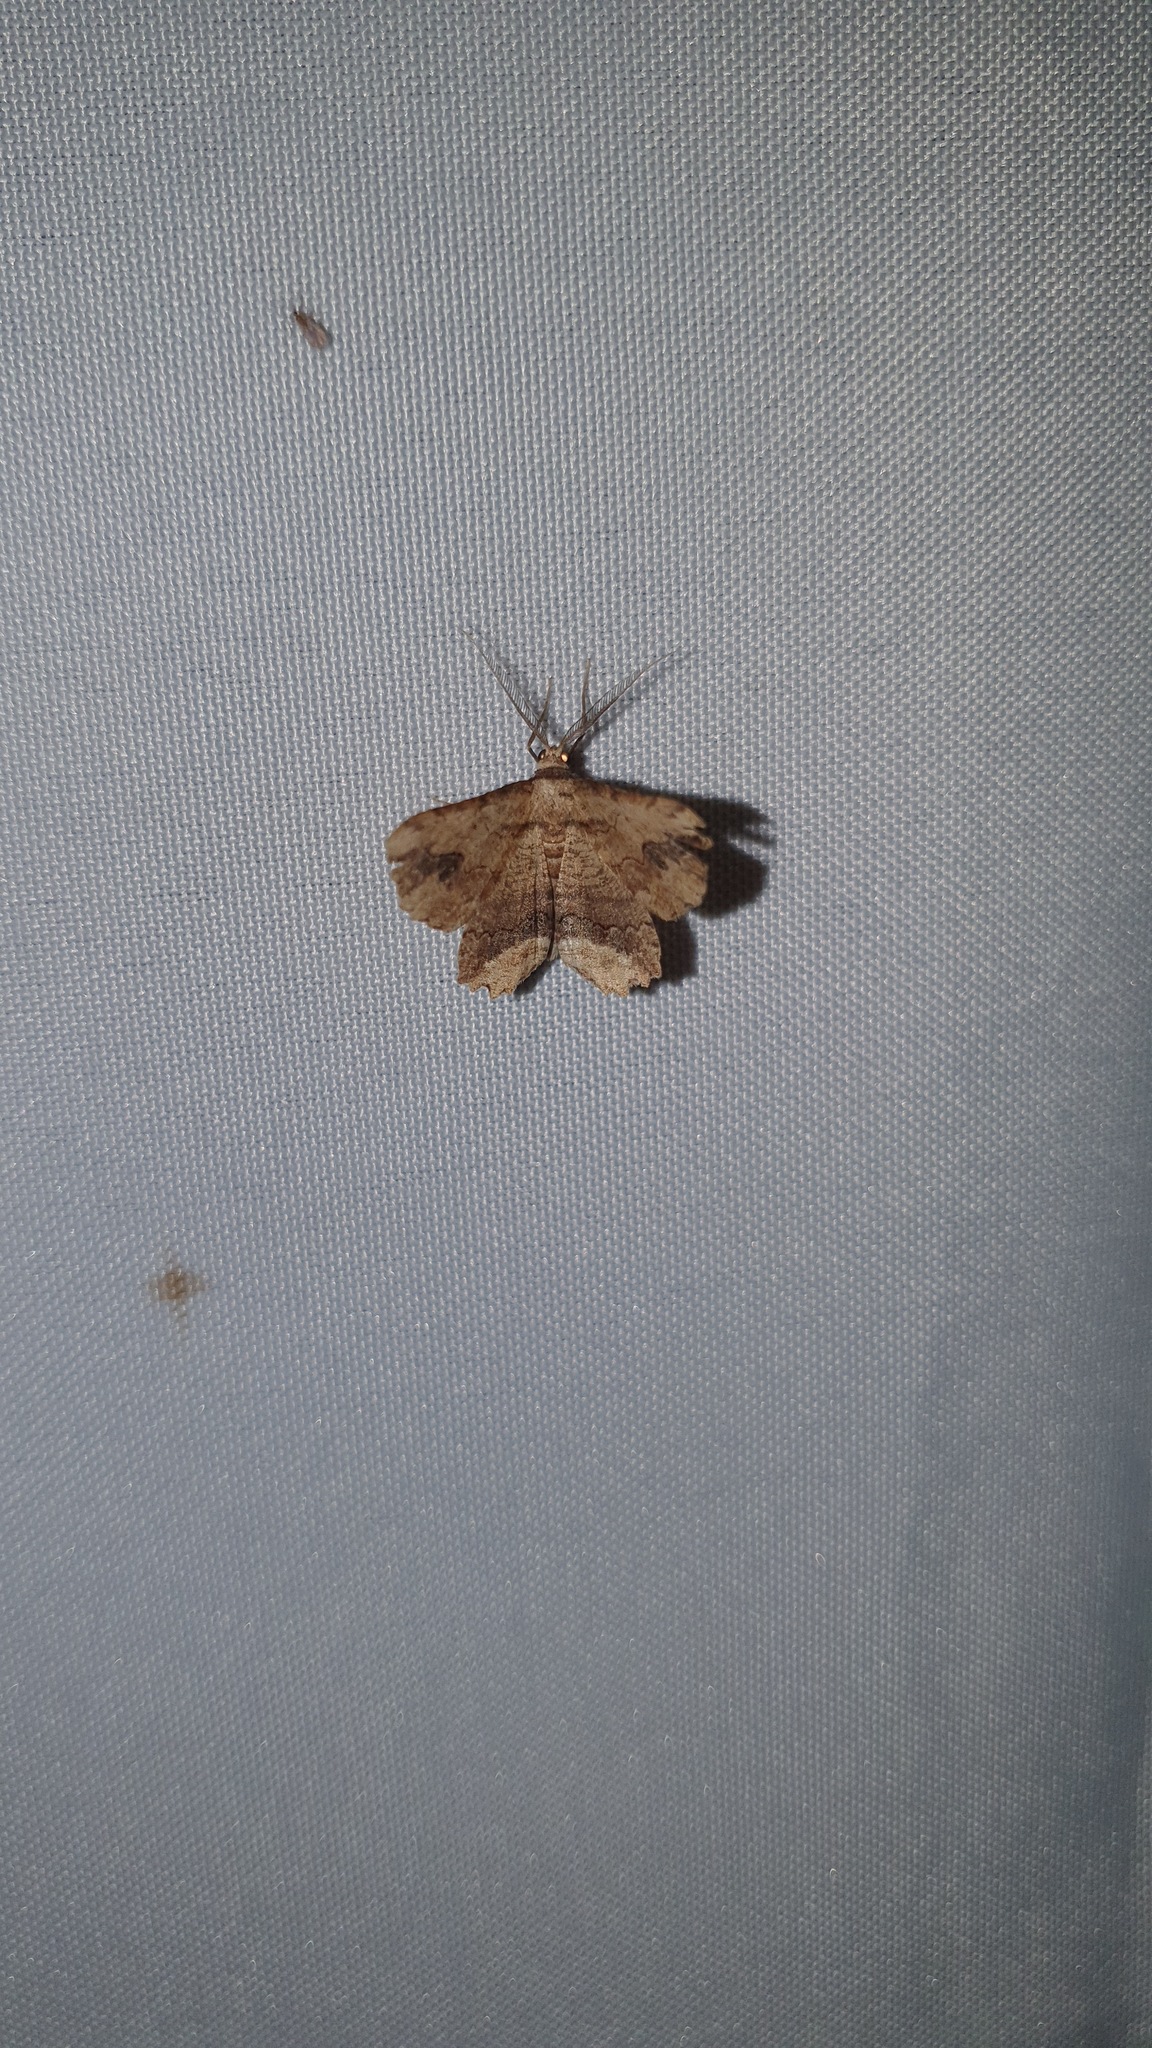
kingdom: Animalia
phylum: Arthropoda
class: Insecta
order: Lepidoptera
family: Geometridae
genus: Menophra
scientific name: Menophra abruptaria
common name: Waved umber
